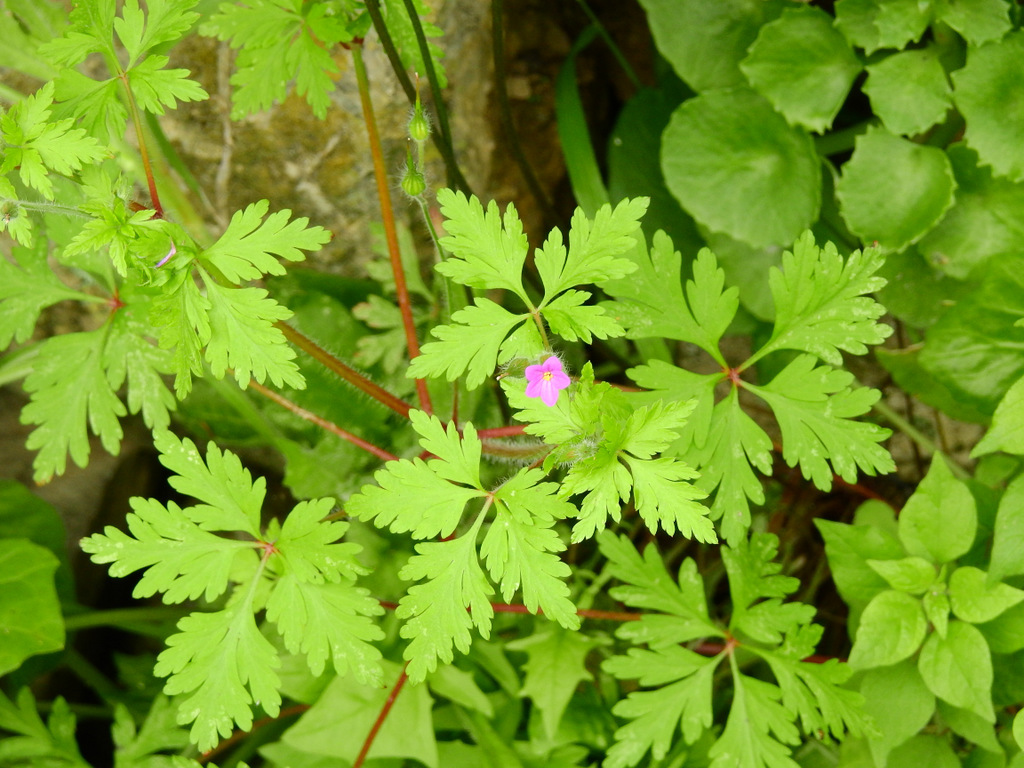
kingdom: Plantae
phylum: Tracheophyta
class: Magnoliopsida
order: Geraniales
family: Geraniaceae
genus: Geranium
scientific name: Geranium purpureum
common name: Little-robin
